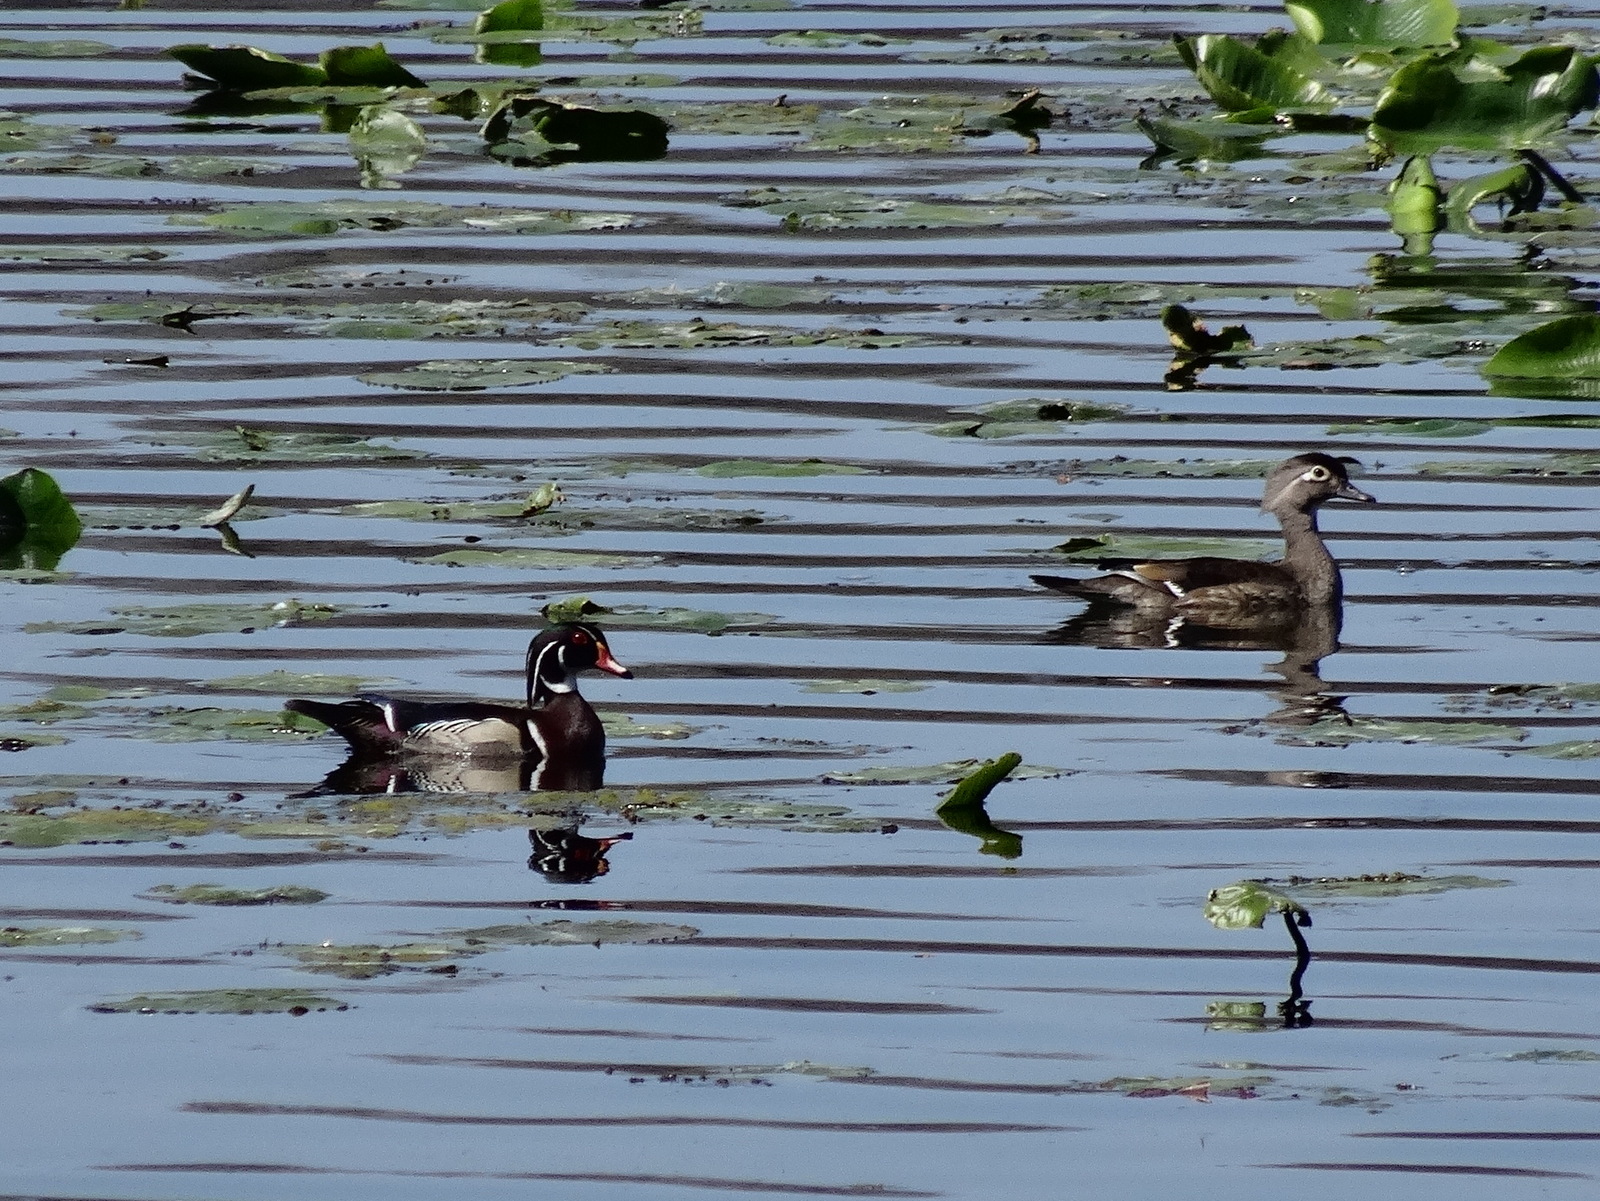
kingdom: Animalia
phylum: Chordata
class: Aves
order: Anseriformes
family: Anatidae
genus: Aix
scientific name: Aix sponsa
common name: Wood duck
